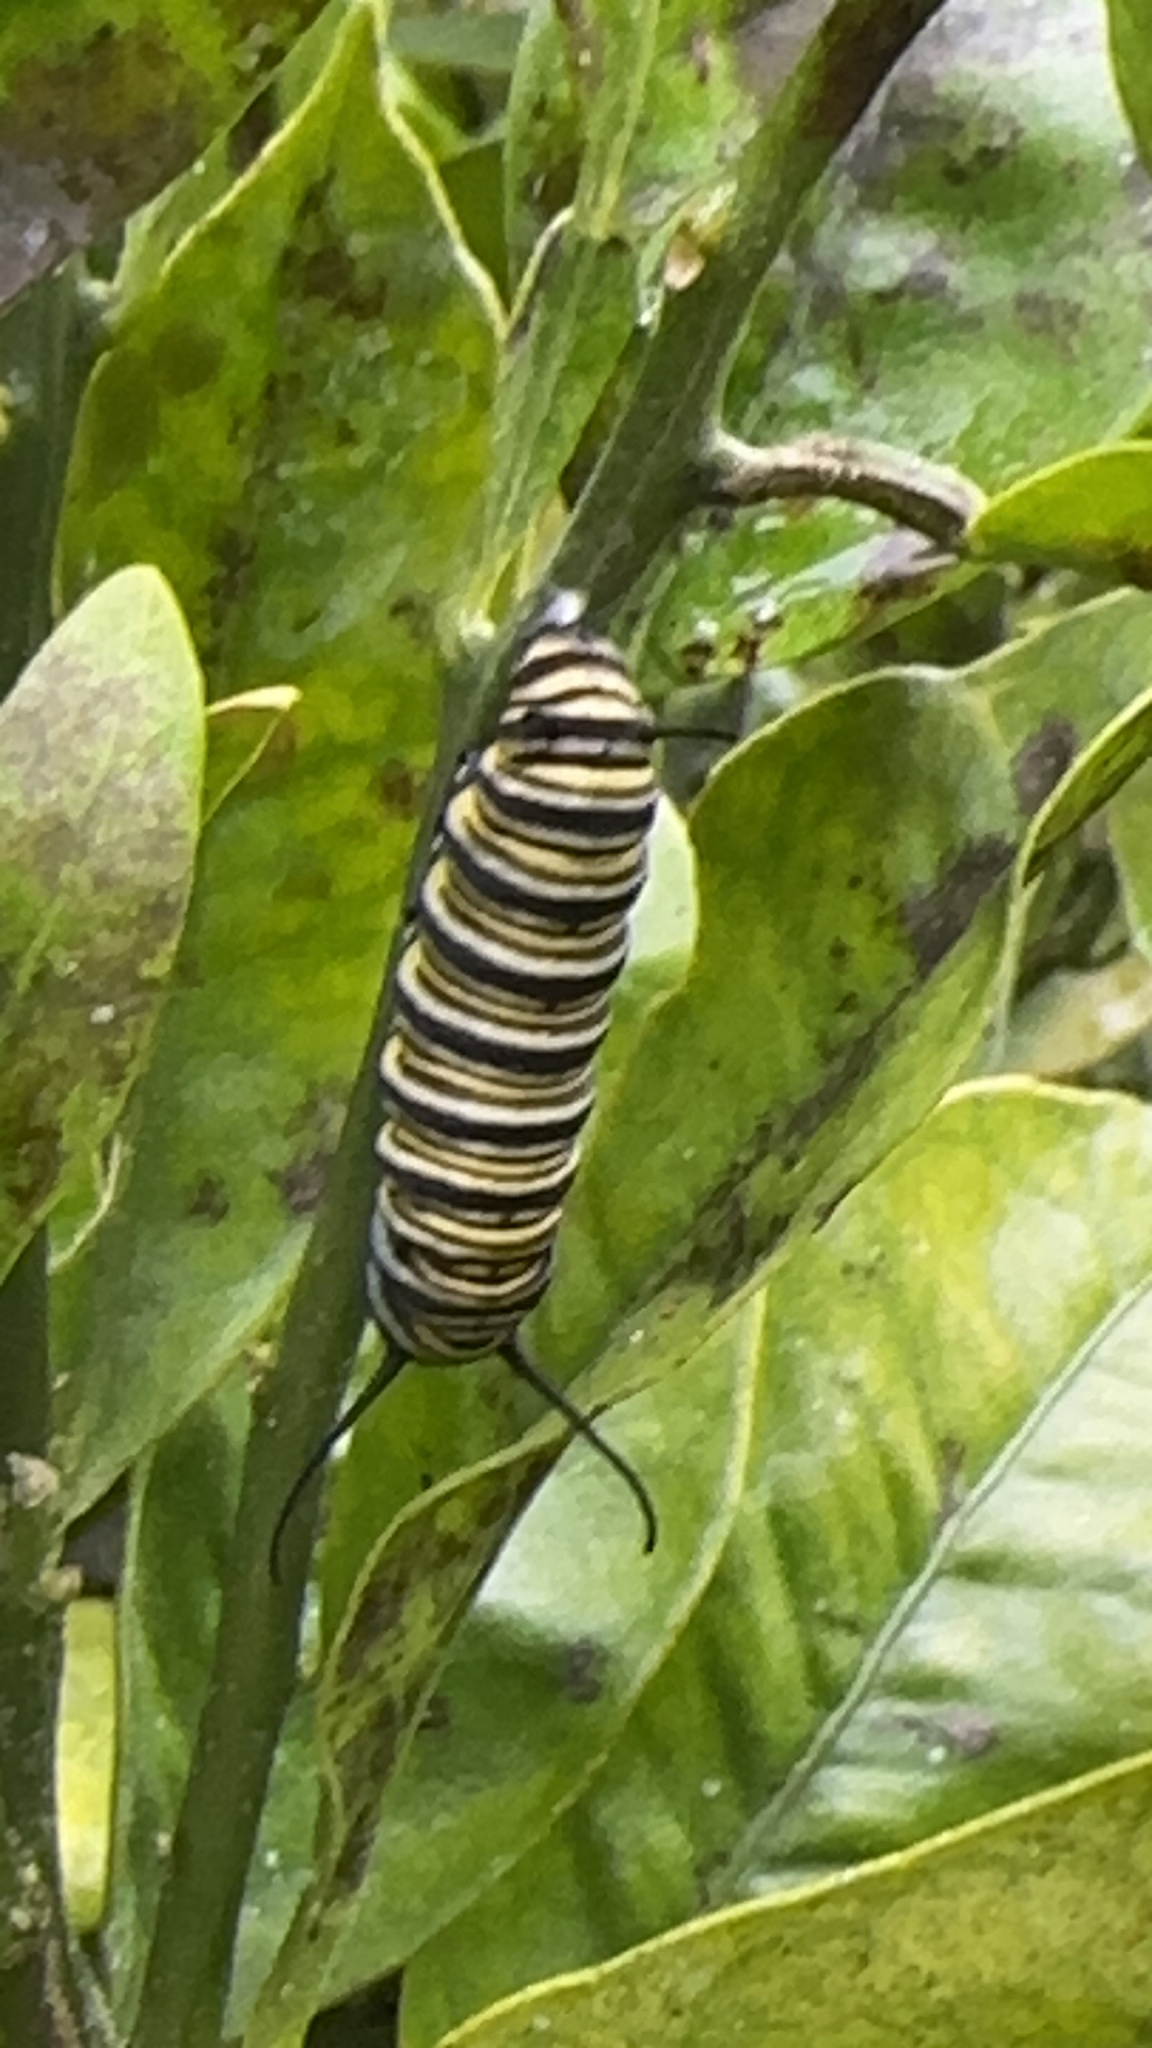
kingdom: Animalia
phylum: Arthropoda
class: Insecta
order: Lepidoptera
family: Nymphalidae
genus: Danaus
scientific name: Danaus plexippus
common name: Monarch
